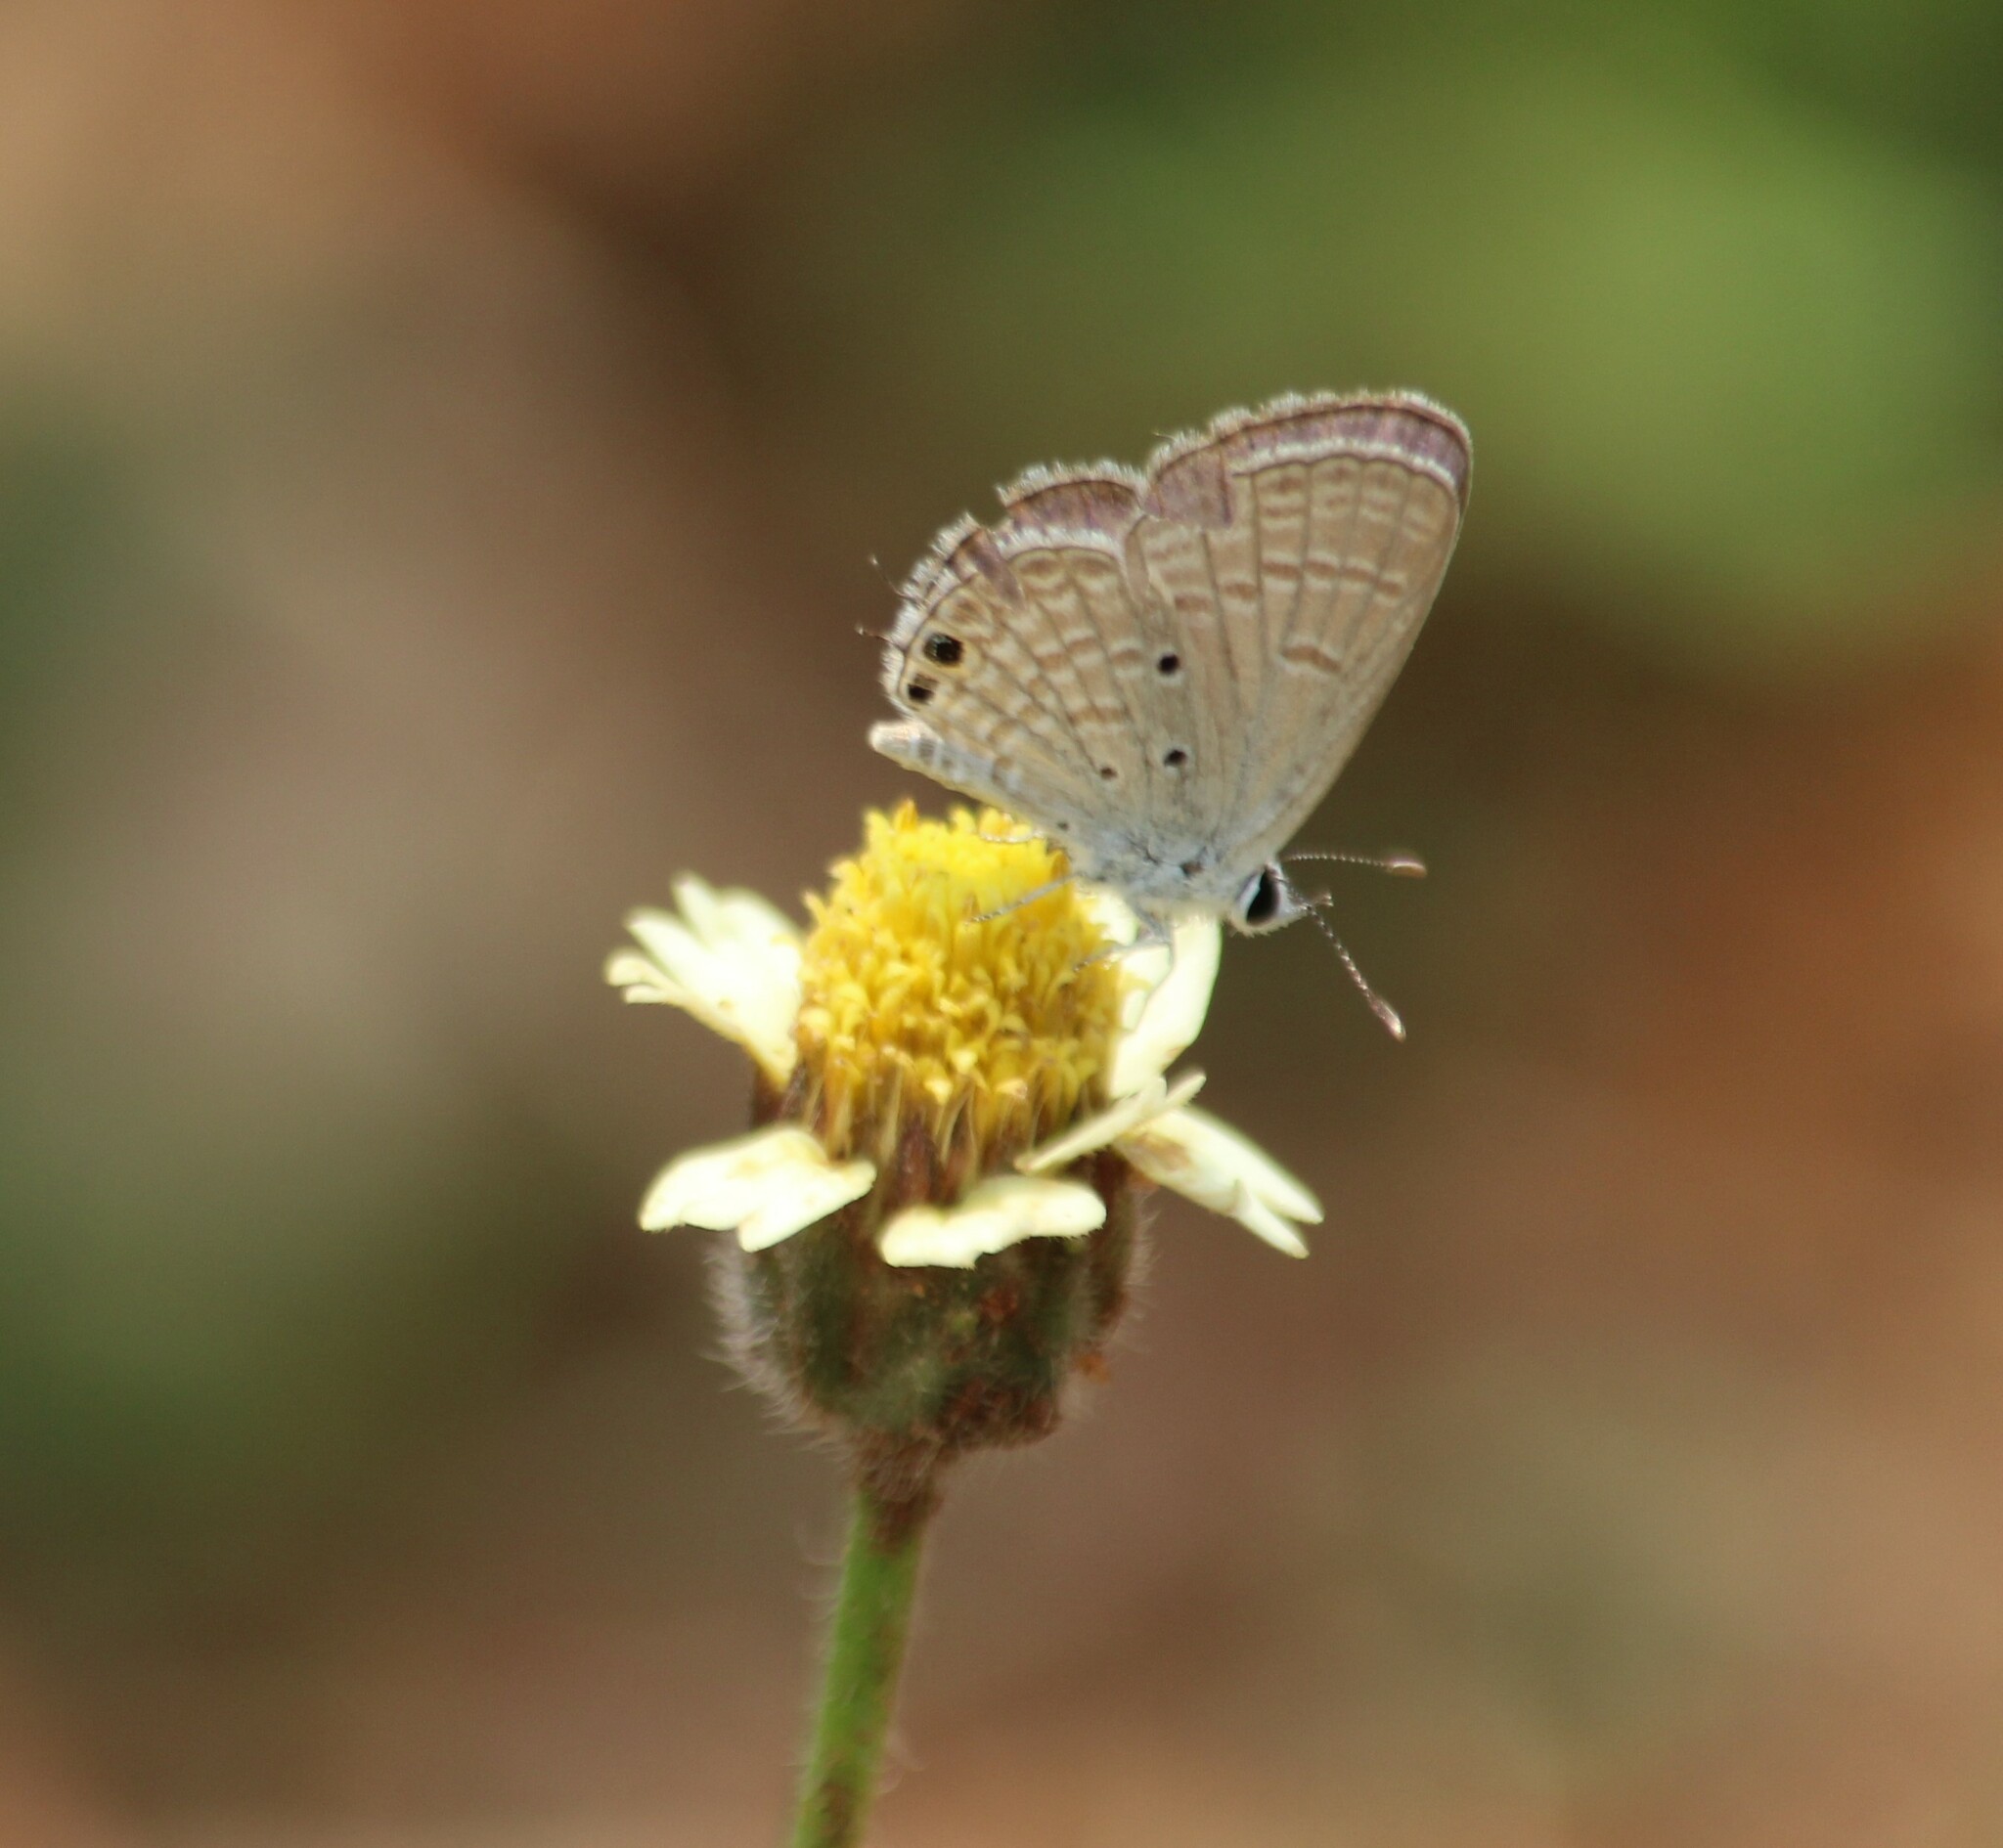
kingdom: Animalia
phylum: Arthropoda
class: Insecta
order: Lepidoptera
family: Lycaenidae
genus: Chilades
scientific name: Chilades parrhasius
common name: Small cupid
